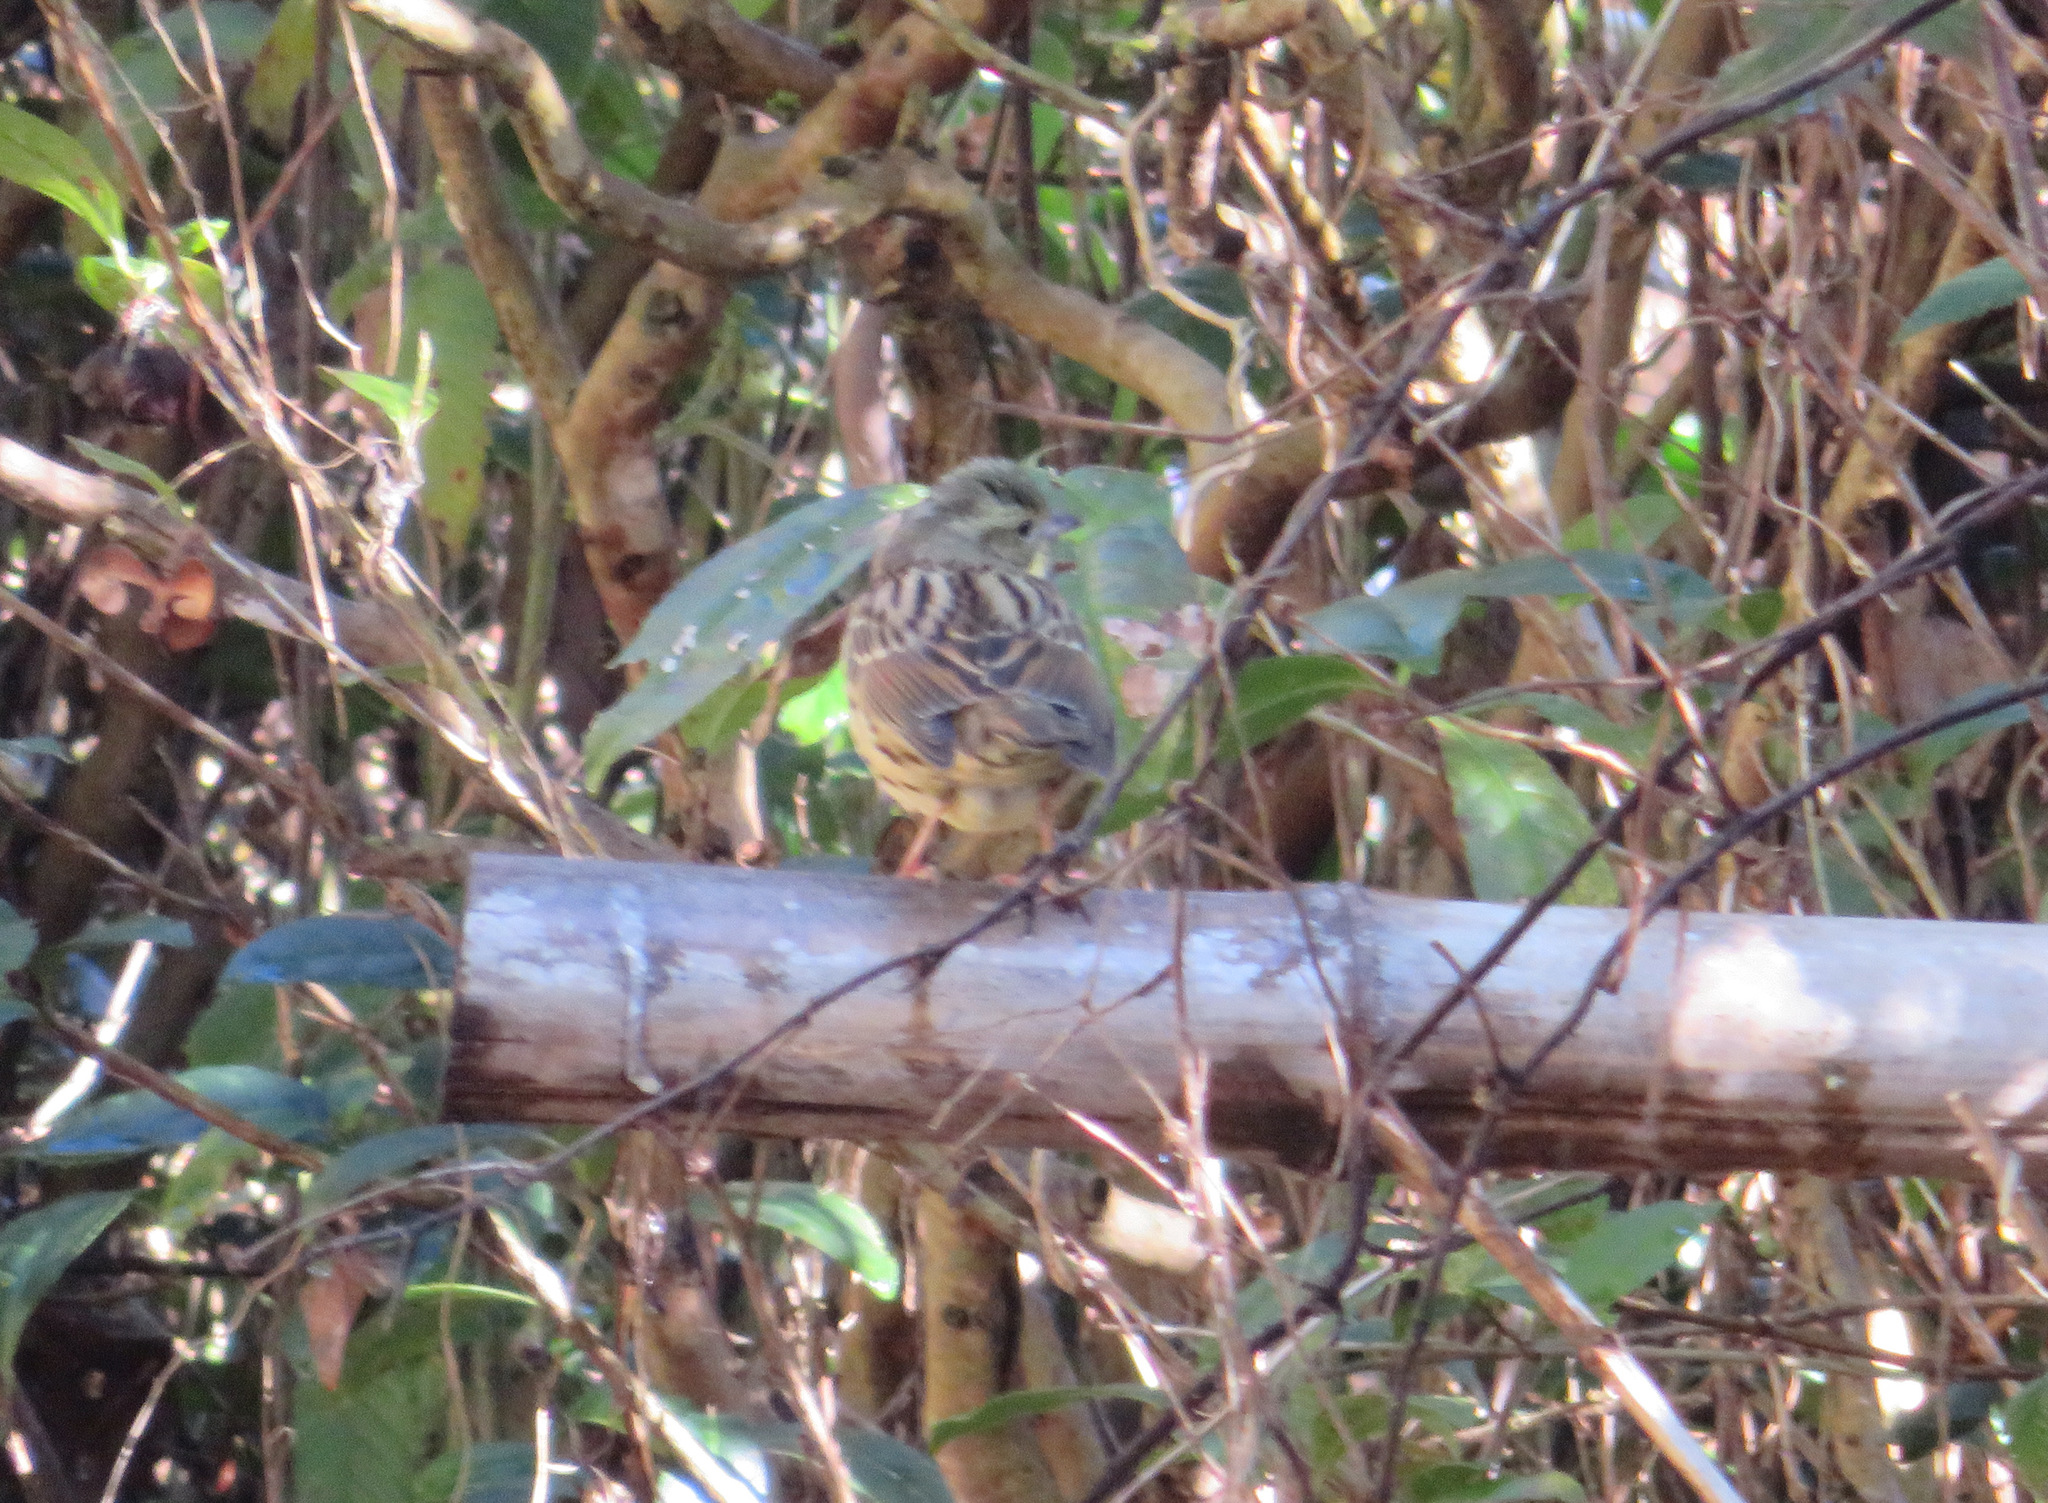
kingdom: Animalia
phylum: Chordata
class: Aves
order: Passeriformes
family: Emberizidae
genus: Emberiza
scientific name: Emberiza personata
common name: Masked bunting
